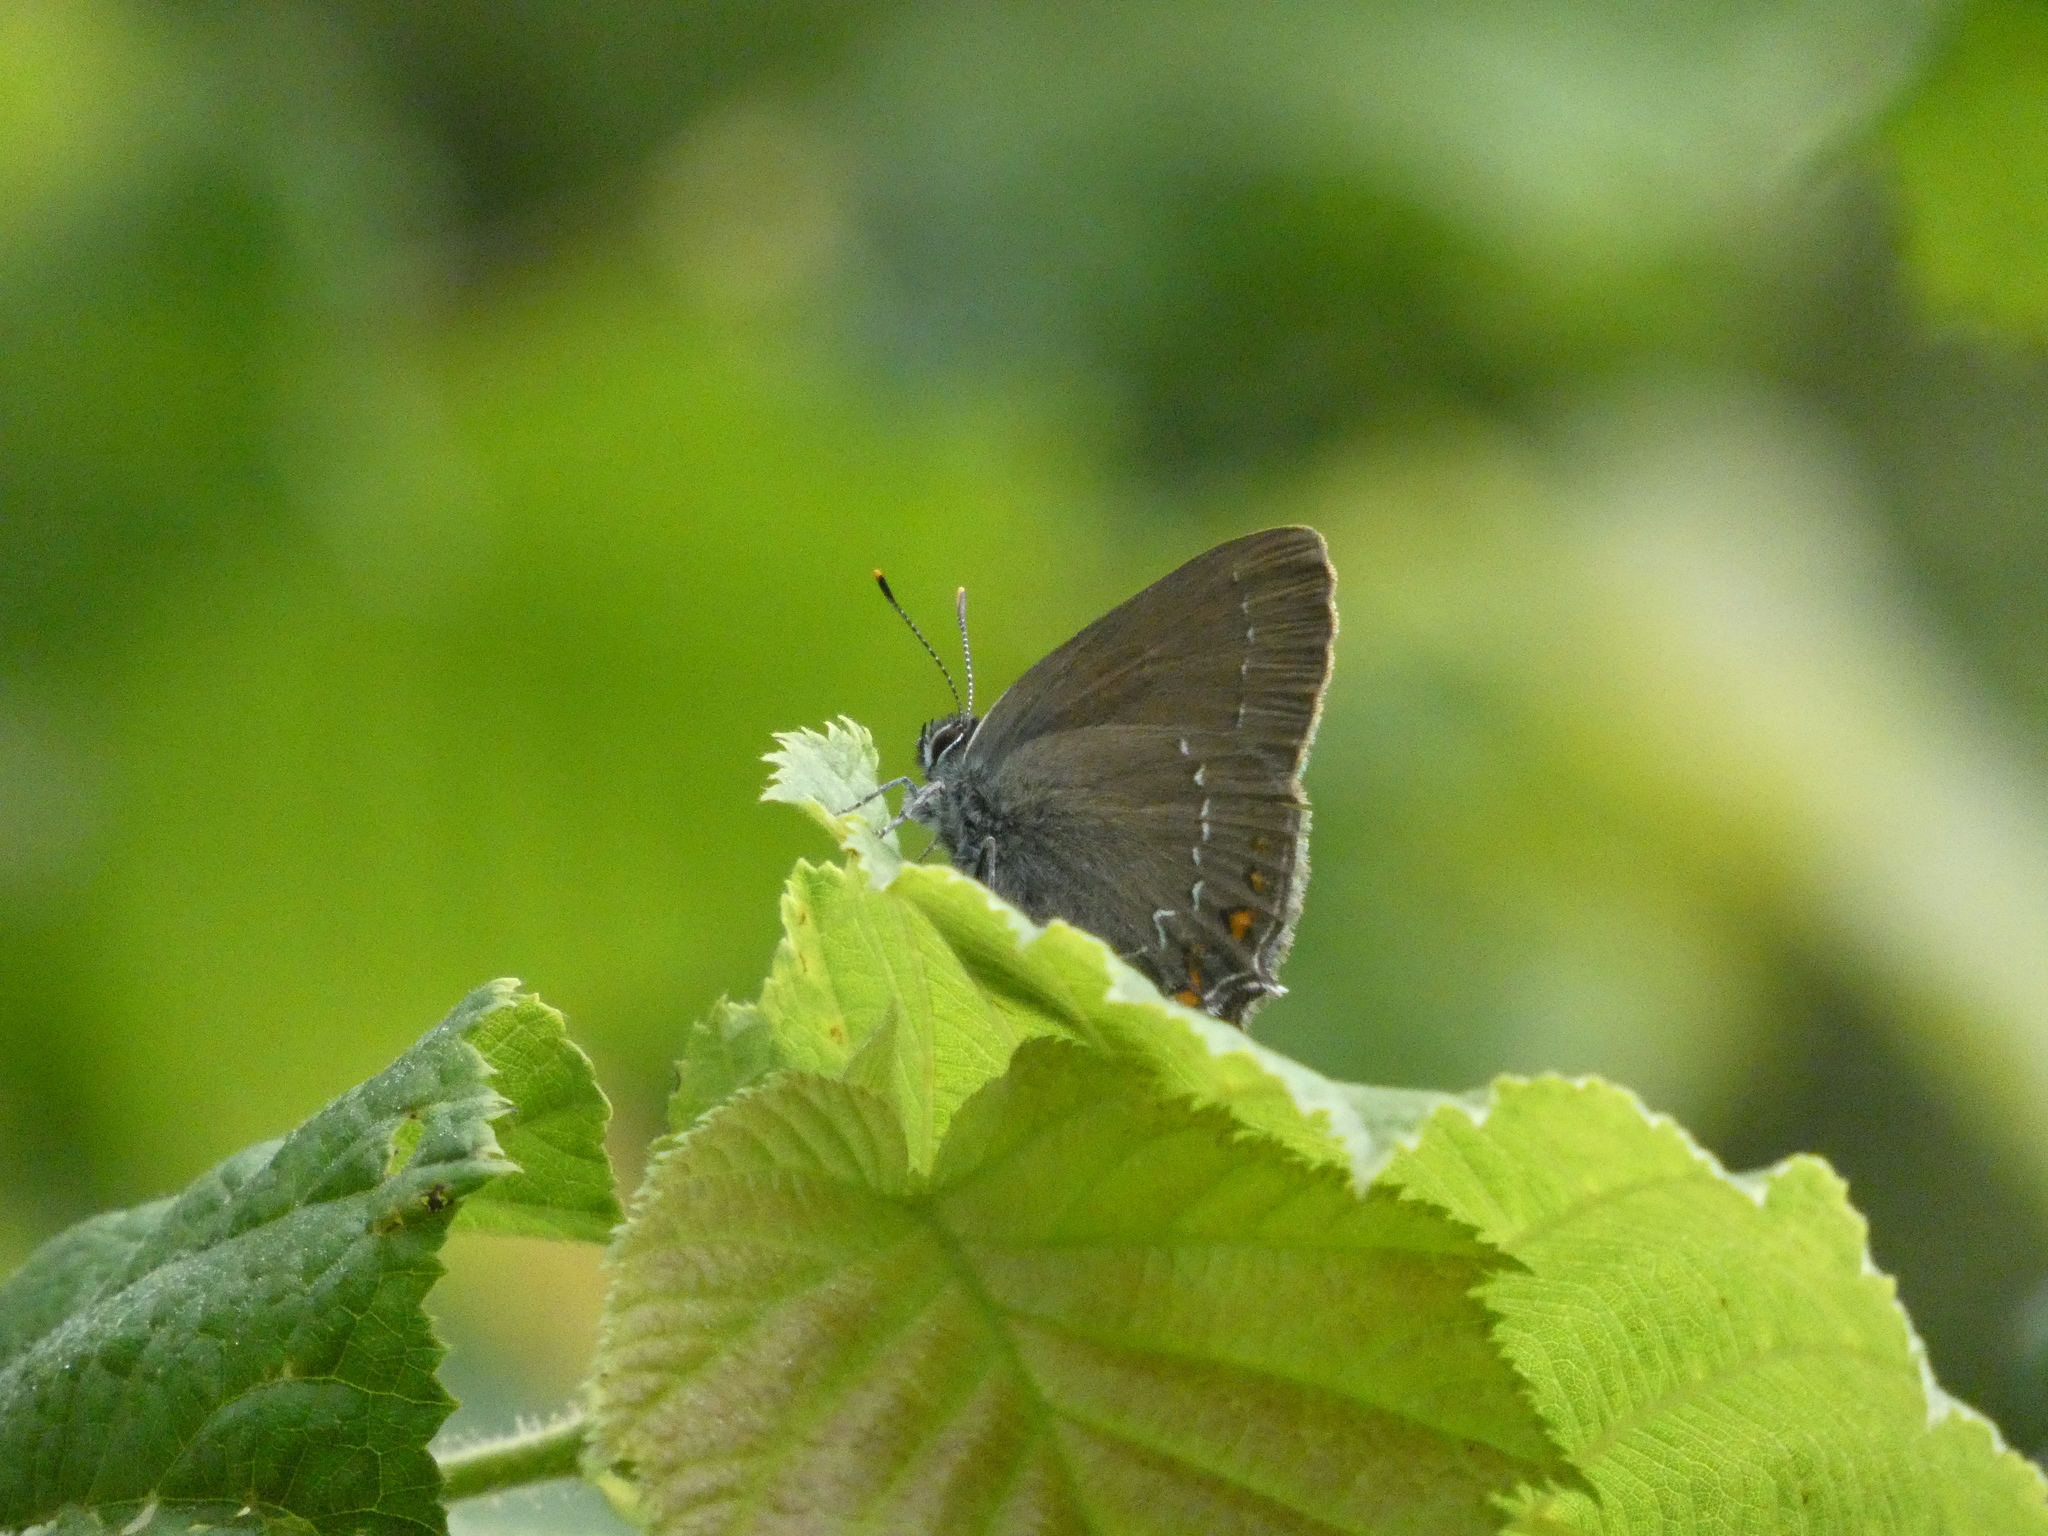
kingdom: Animalia
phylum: Arthropoda
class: Insecta
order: Lepidoptera
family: Lycaenidae
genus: Nordmannia
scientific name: Nordmannia ilicis
